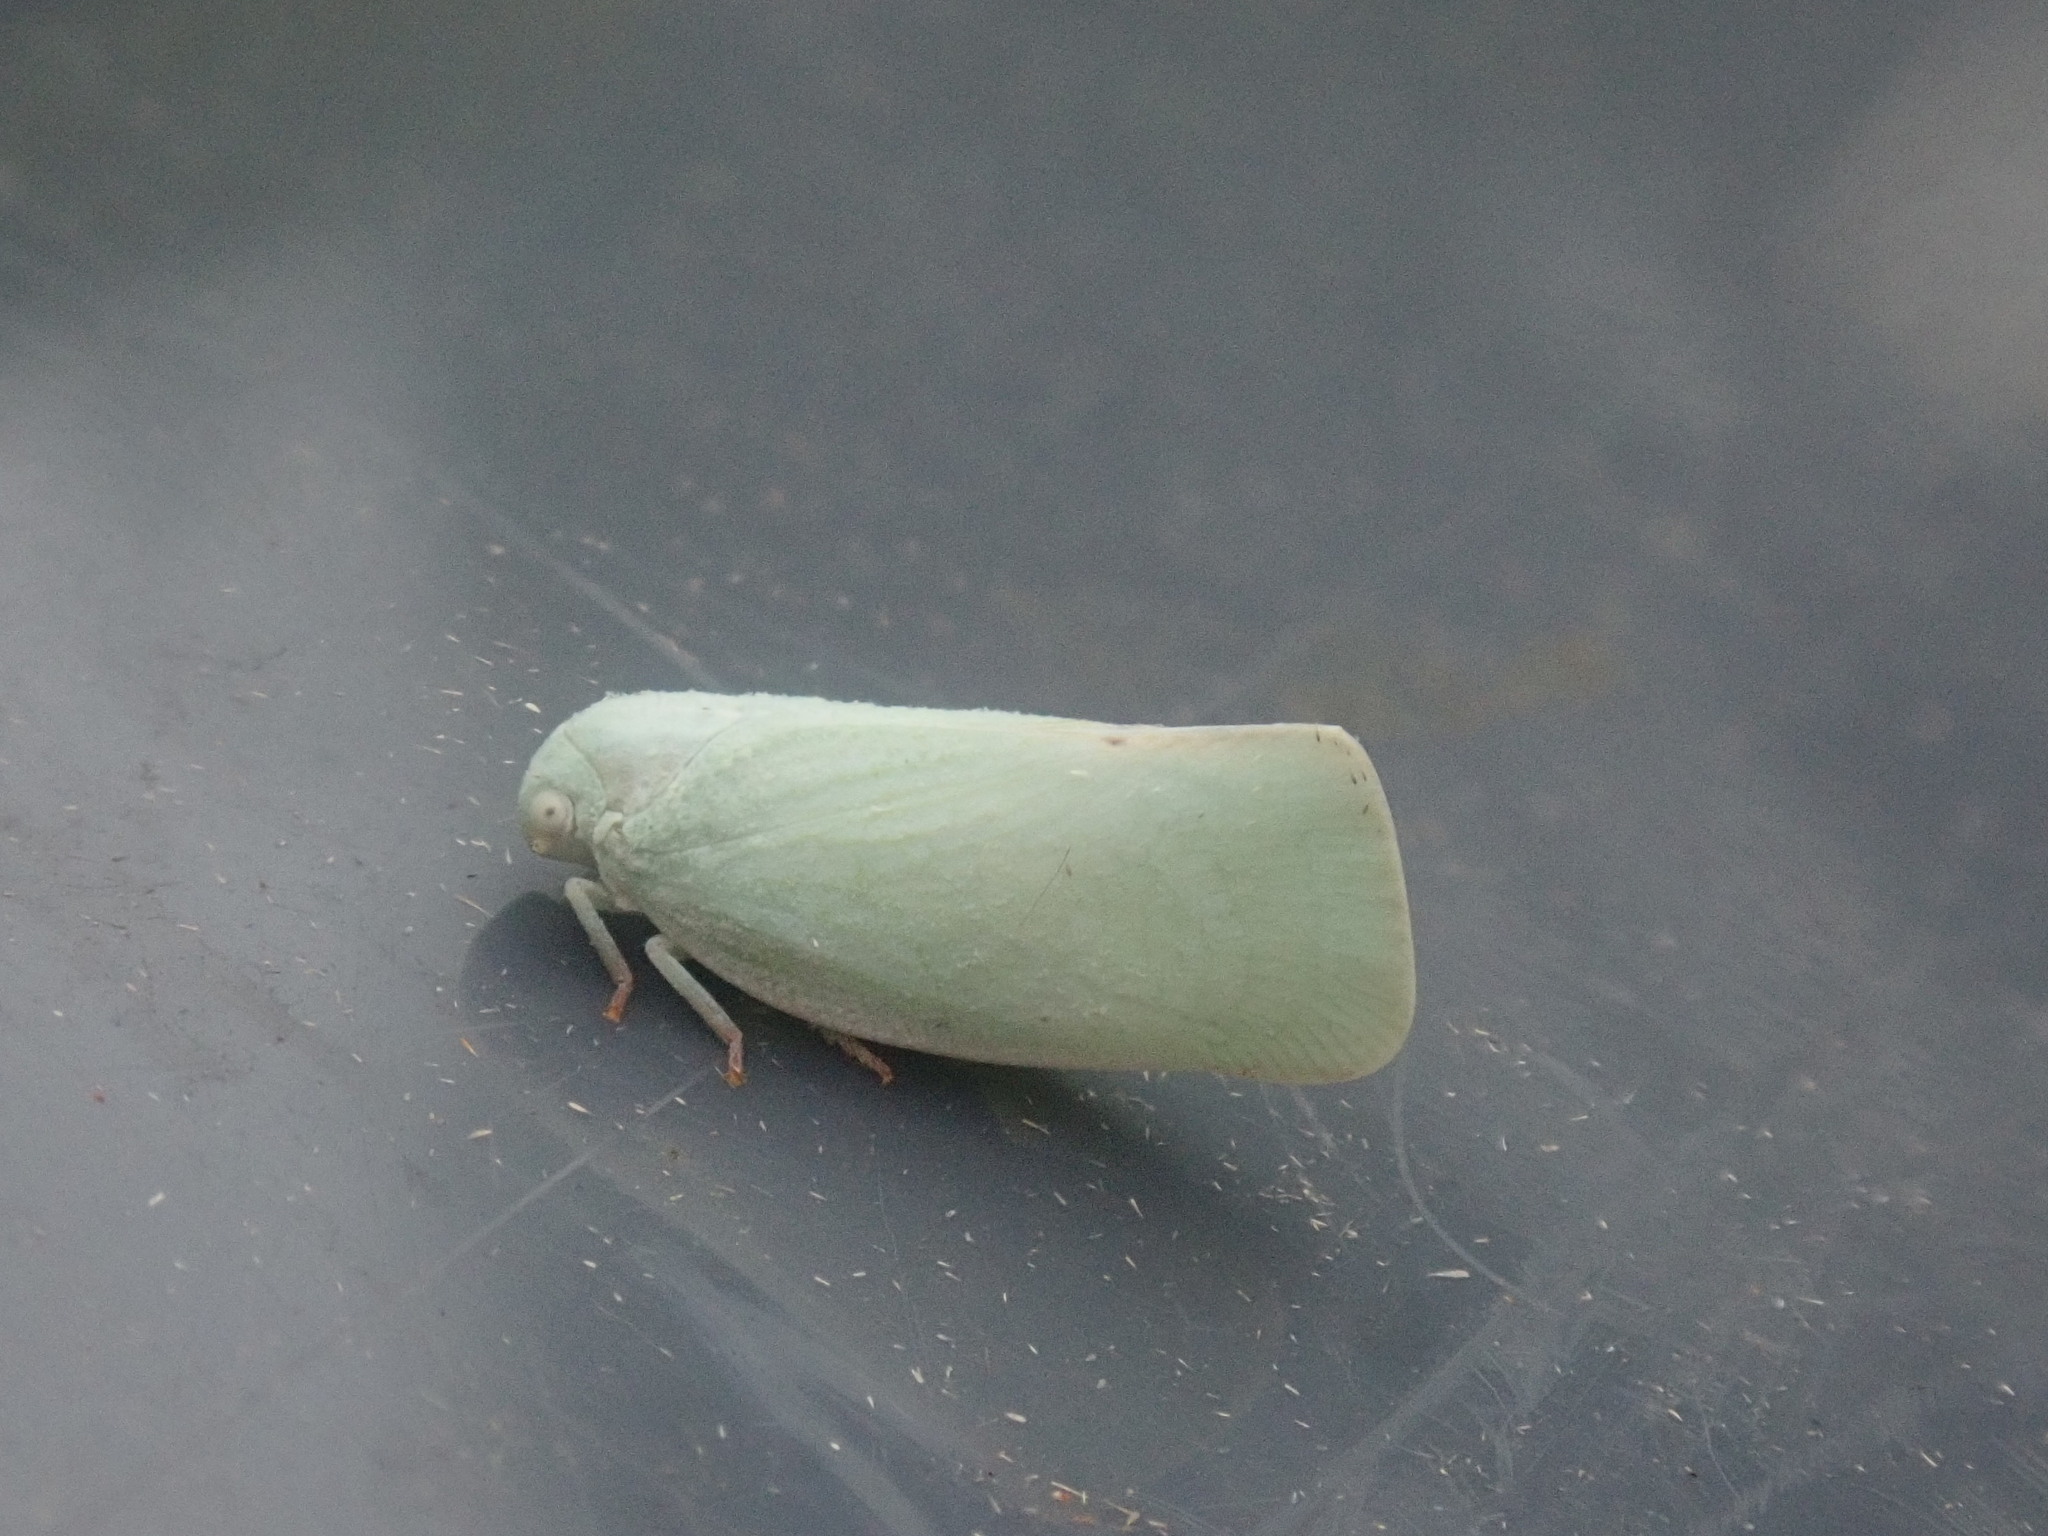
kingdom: Animalia
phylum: Arthropoda
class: Insecta
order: Hemiptera
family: Flatidae
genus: Flatormenis
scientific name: Flatormenis proxima
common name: Northern flatid planthopper
